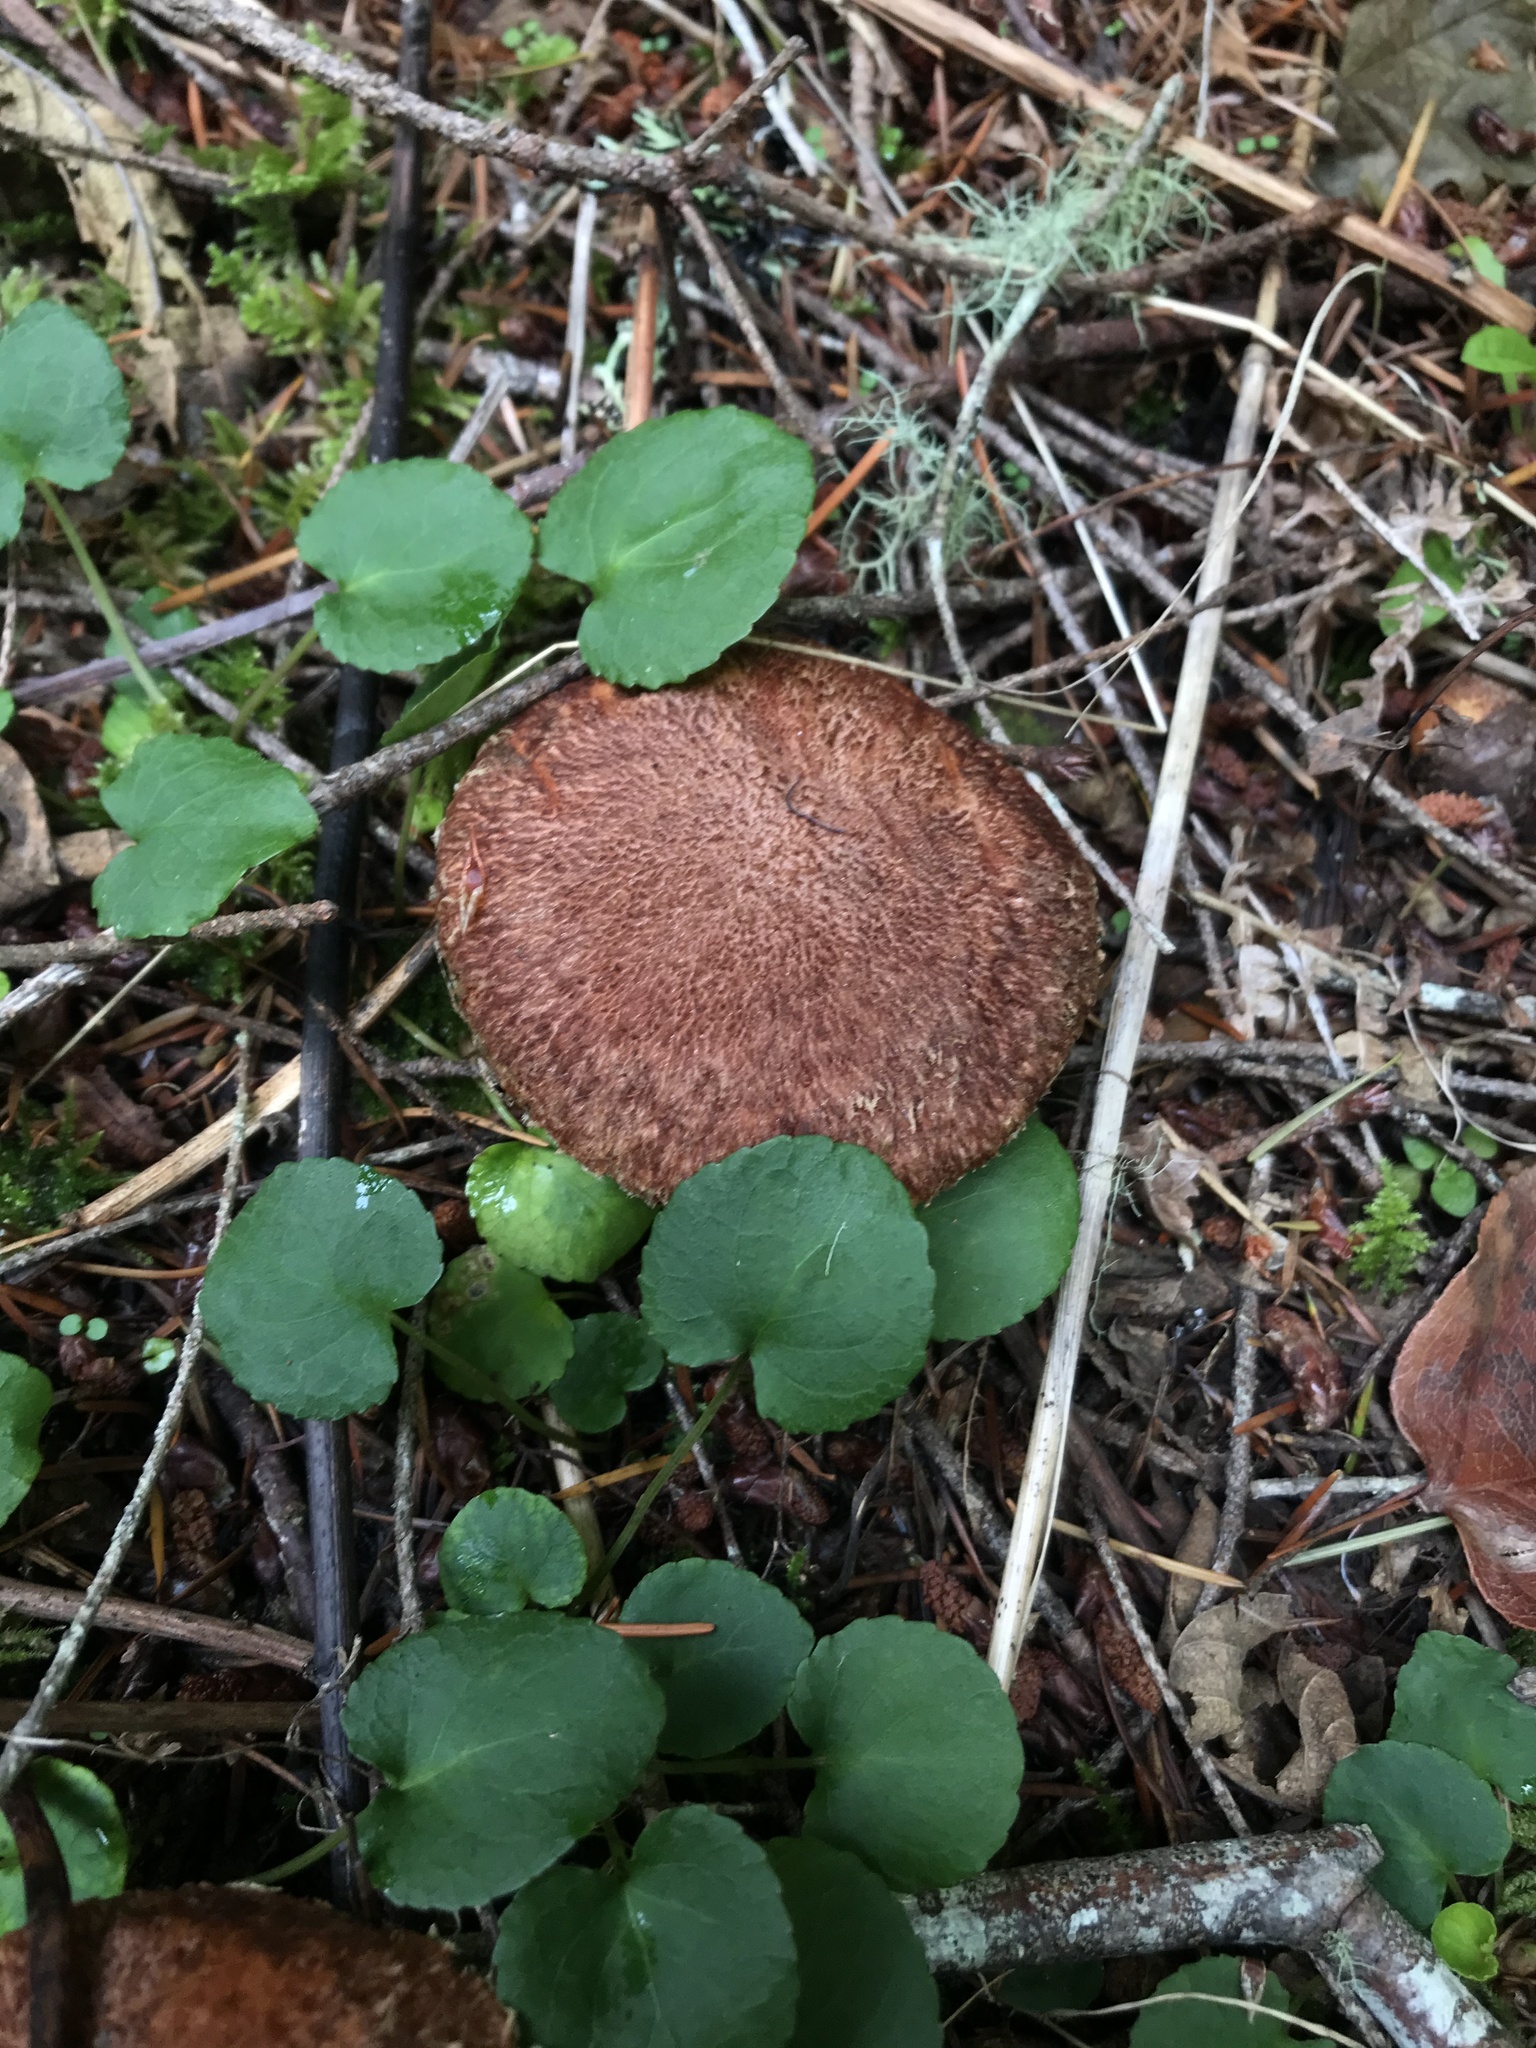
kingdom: Fungi
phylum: Basidiomycota
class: Agaricomycetes
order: Boletales
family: Suillaceae
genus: Suillus
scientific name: Suillus lakei
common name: Western painted suillus
